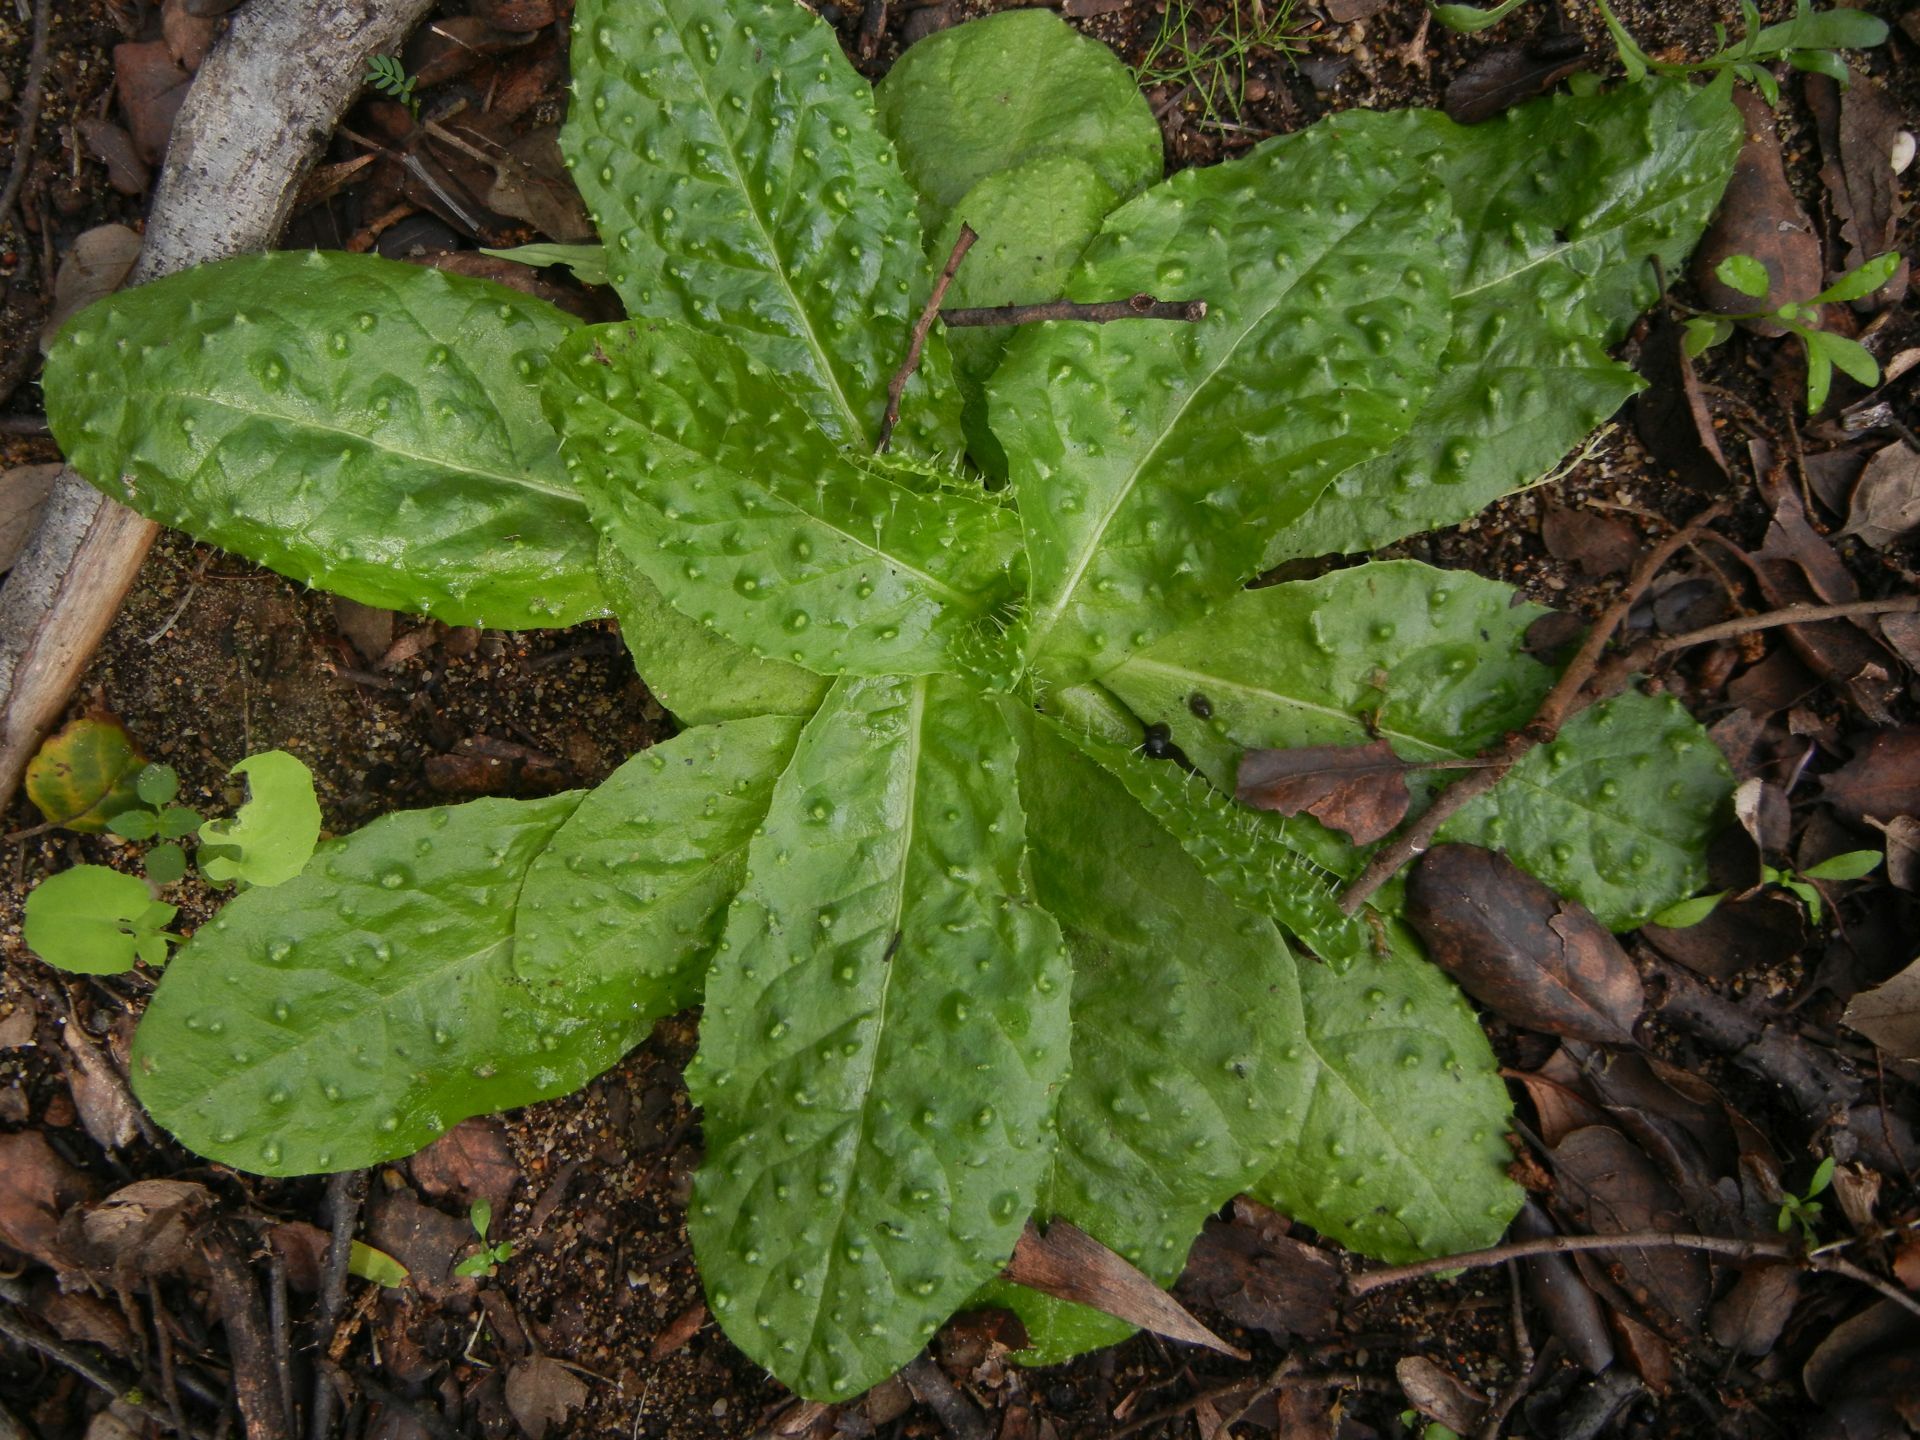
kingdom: Plantae
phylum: Tracheophyta
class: Magnoliopsida
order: Asterales
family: Asteraceae
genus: Helminthotheca
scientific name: Helminthotheca spinosa
